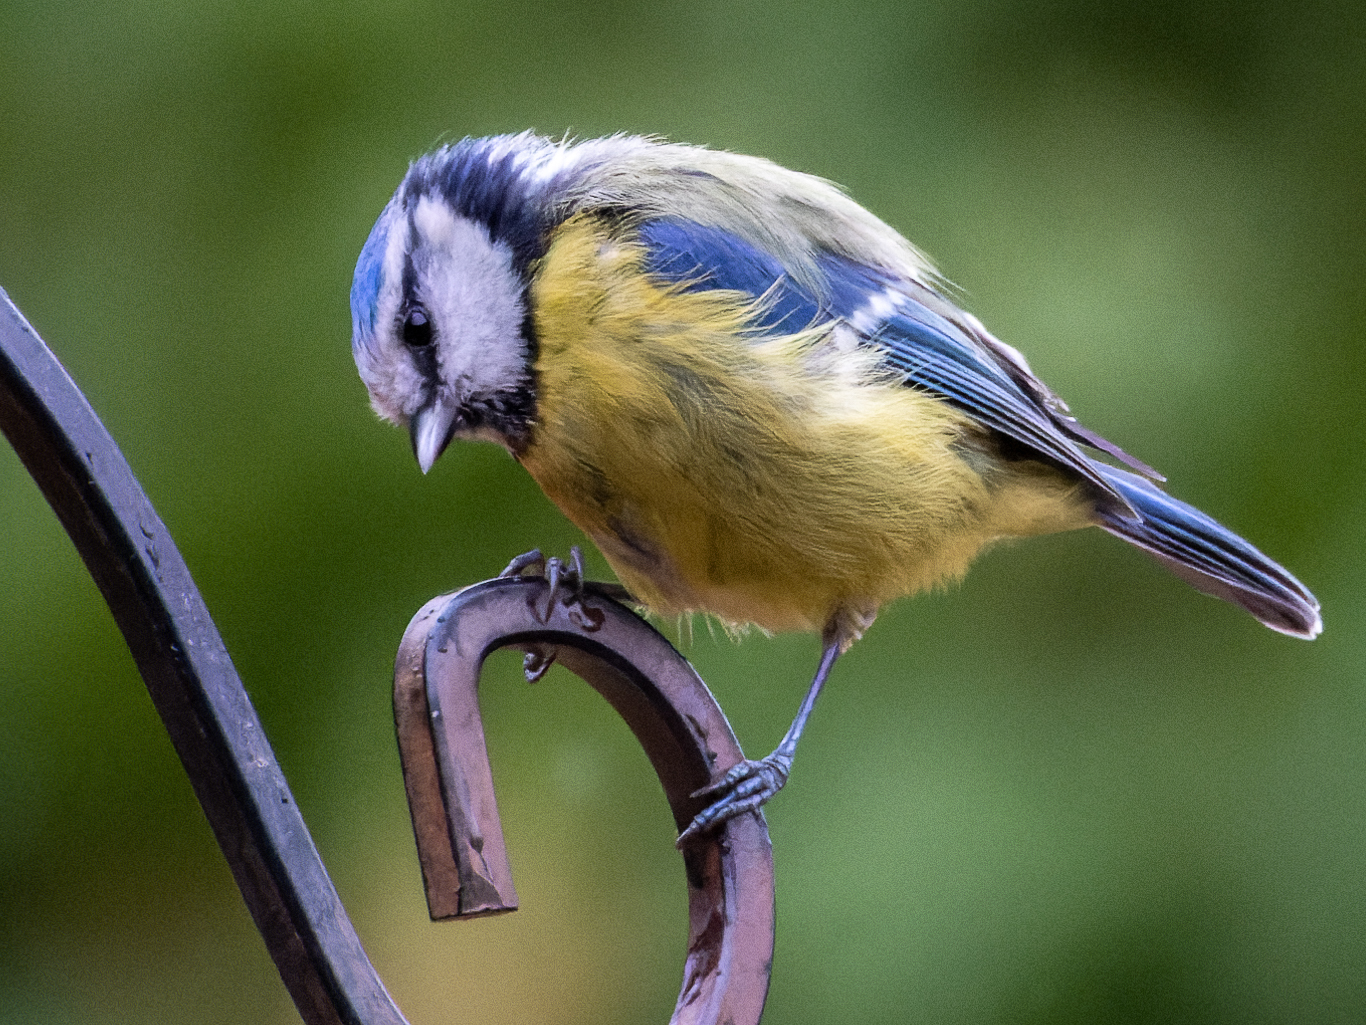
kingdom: Animalia
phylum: Chordata
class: Aves
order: Passeriformes
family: Paridae
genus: Cyanistes
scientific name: Cyanistes caeruleus
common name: Eurasian blue tit
